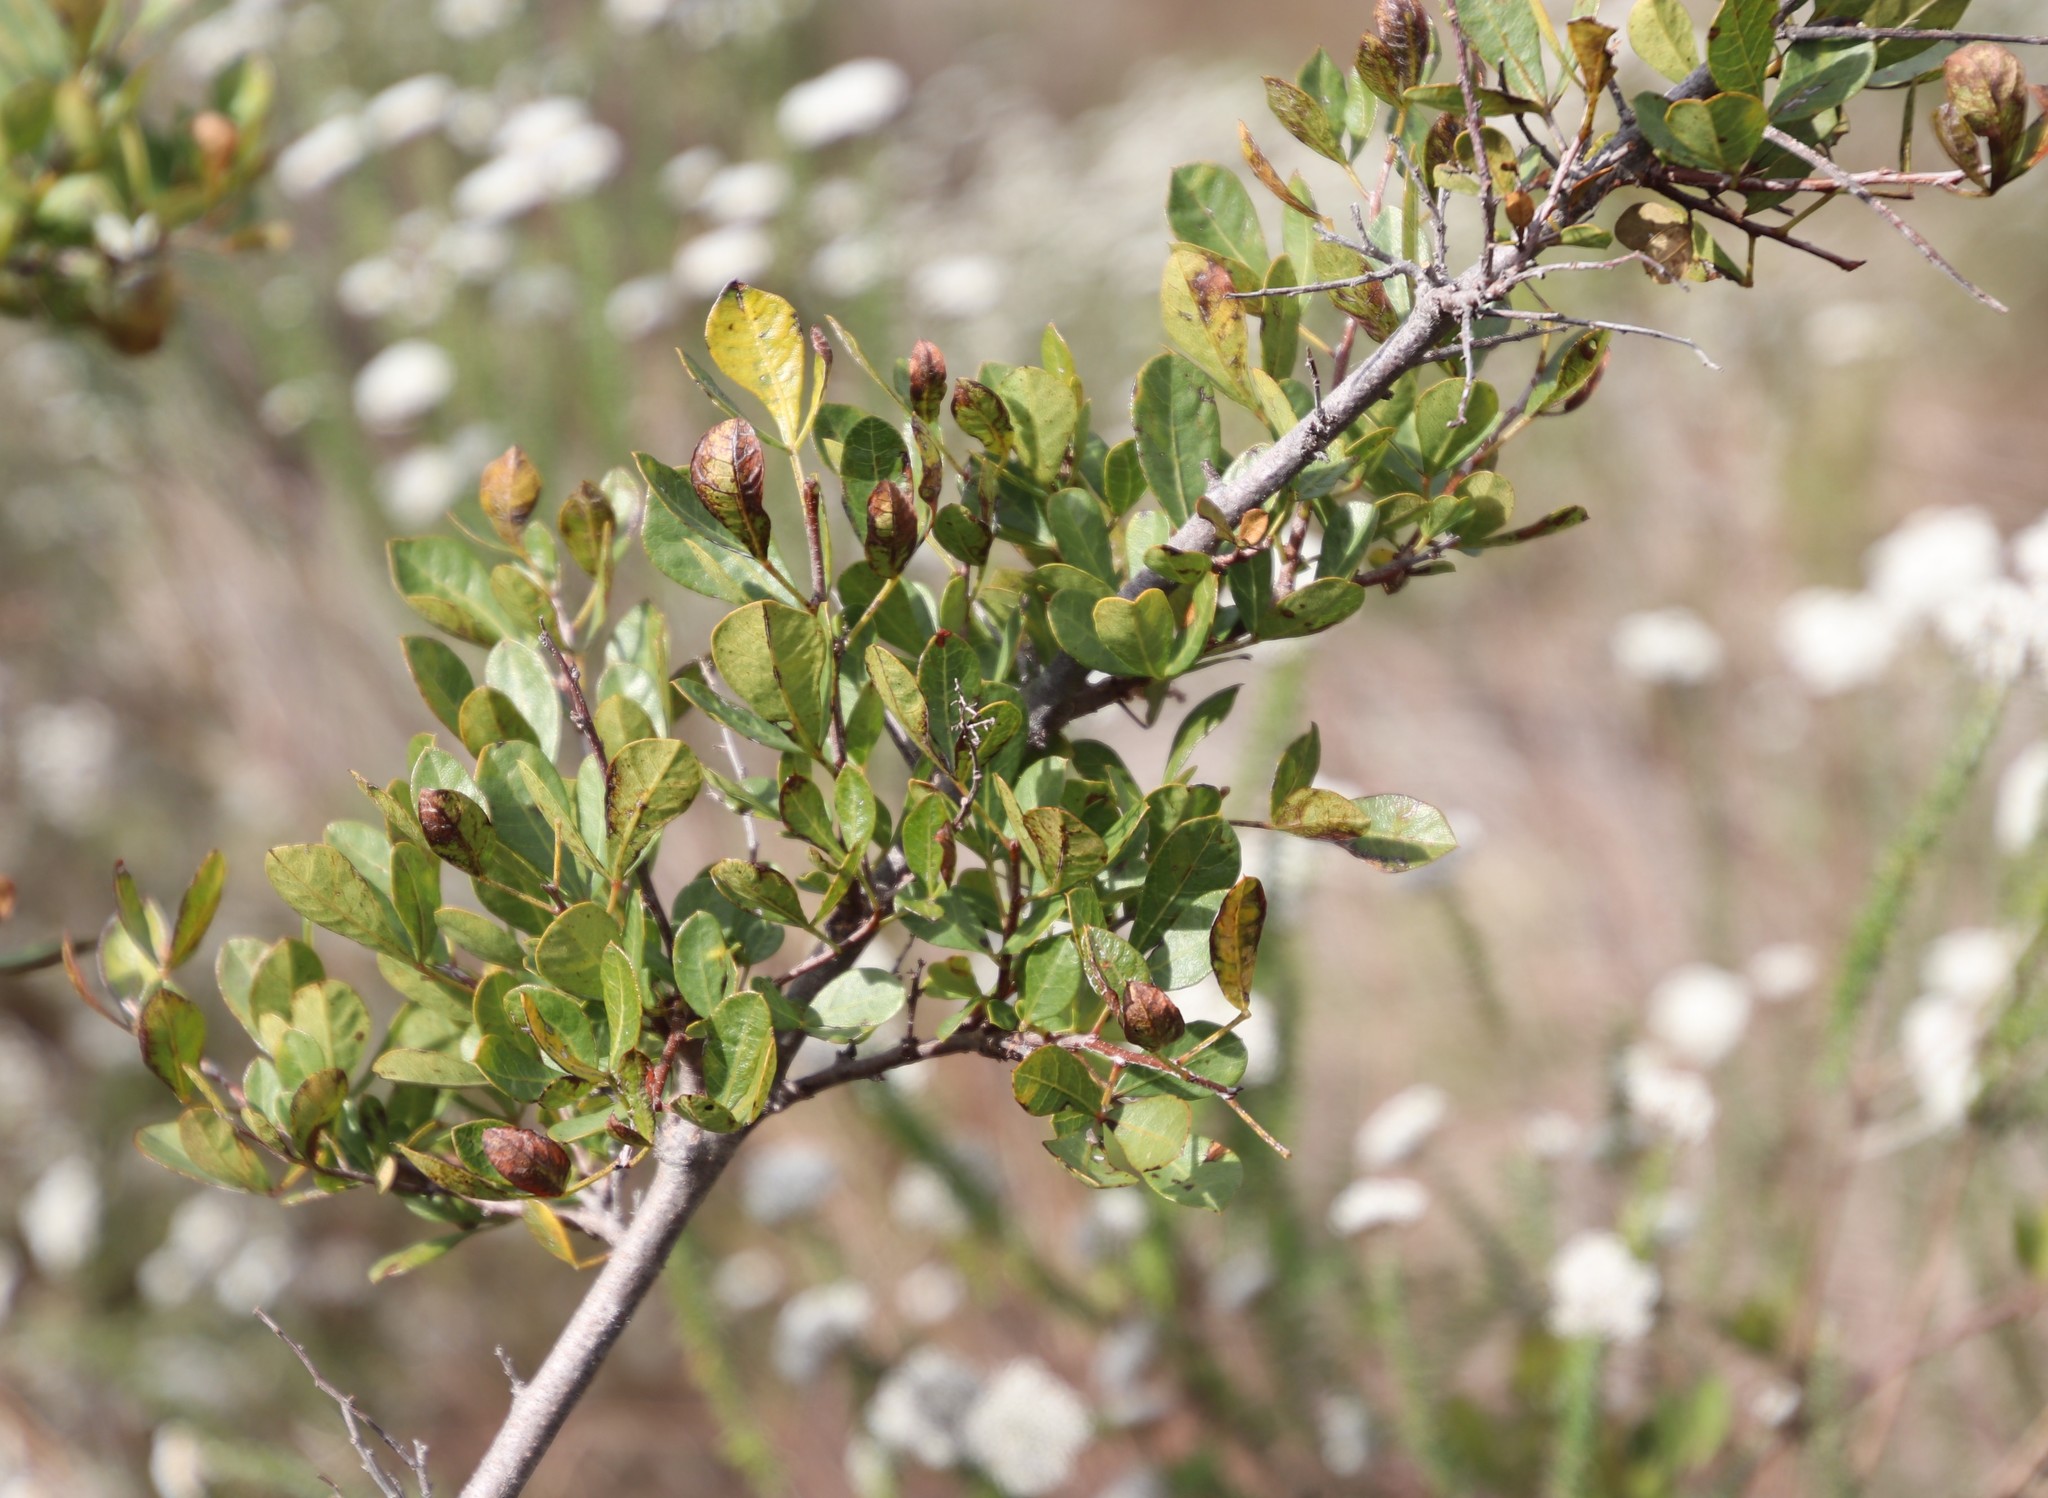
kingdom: Plantae
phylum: Tracheophyta
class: Magnoliopsida
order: Sapindales
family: Anacardiaceae
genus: Searsia
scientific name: Searsia laevigata
